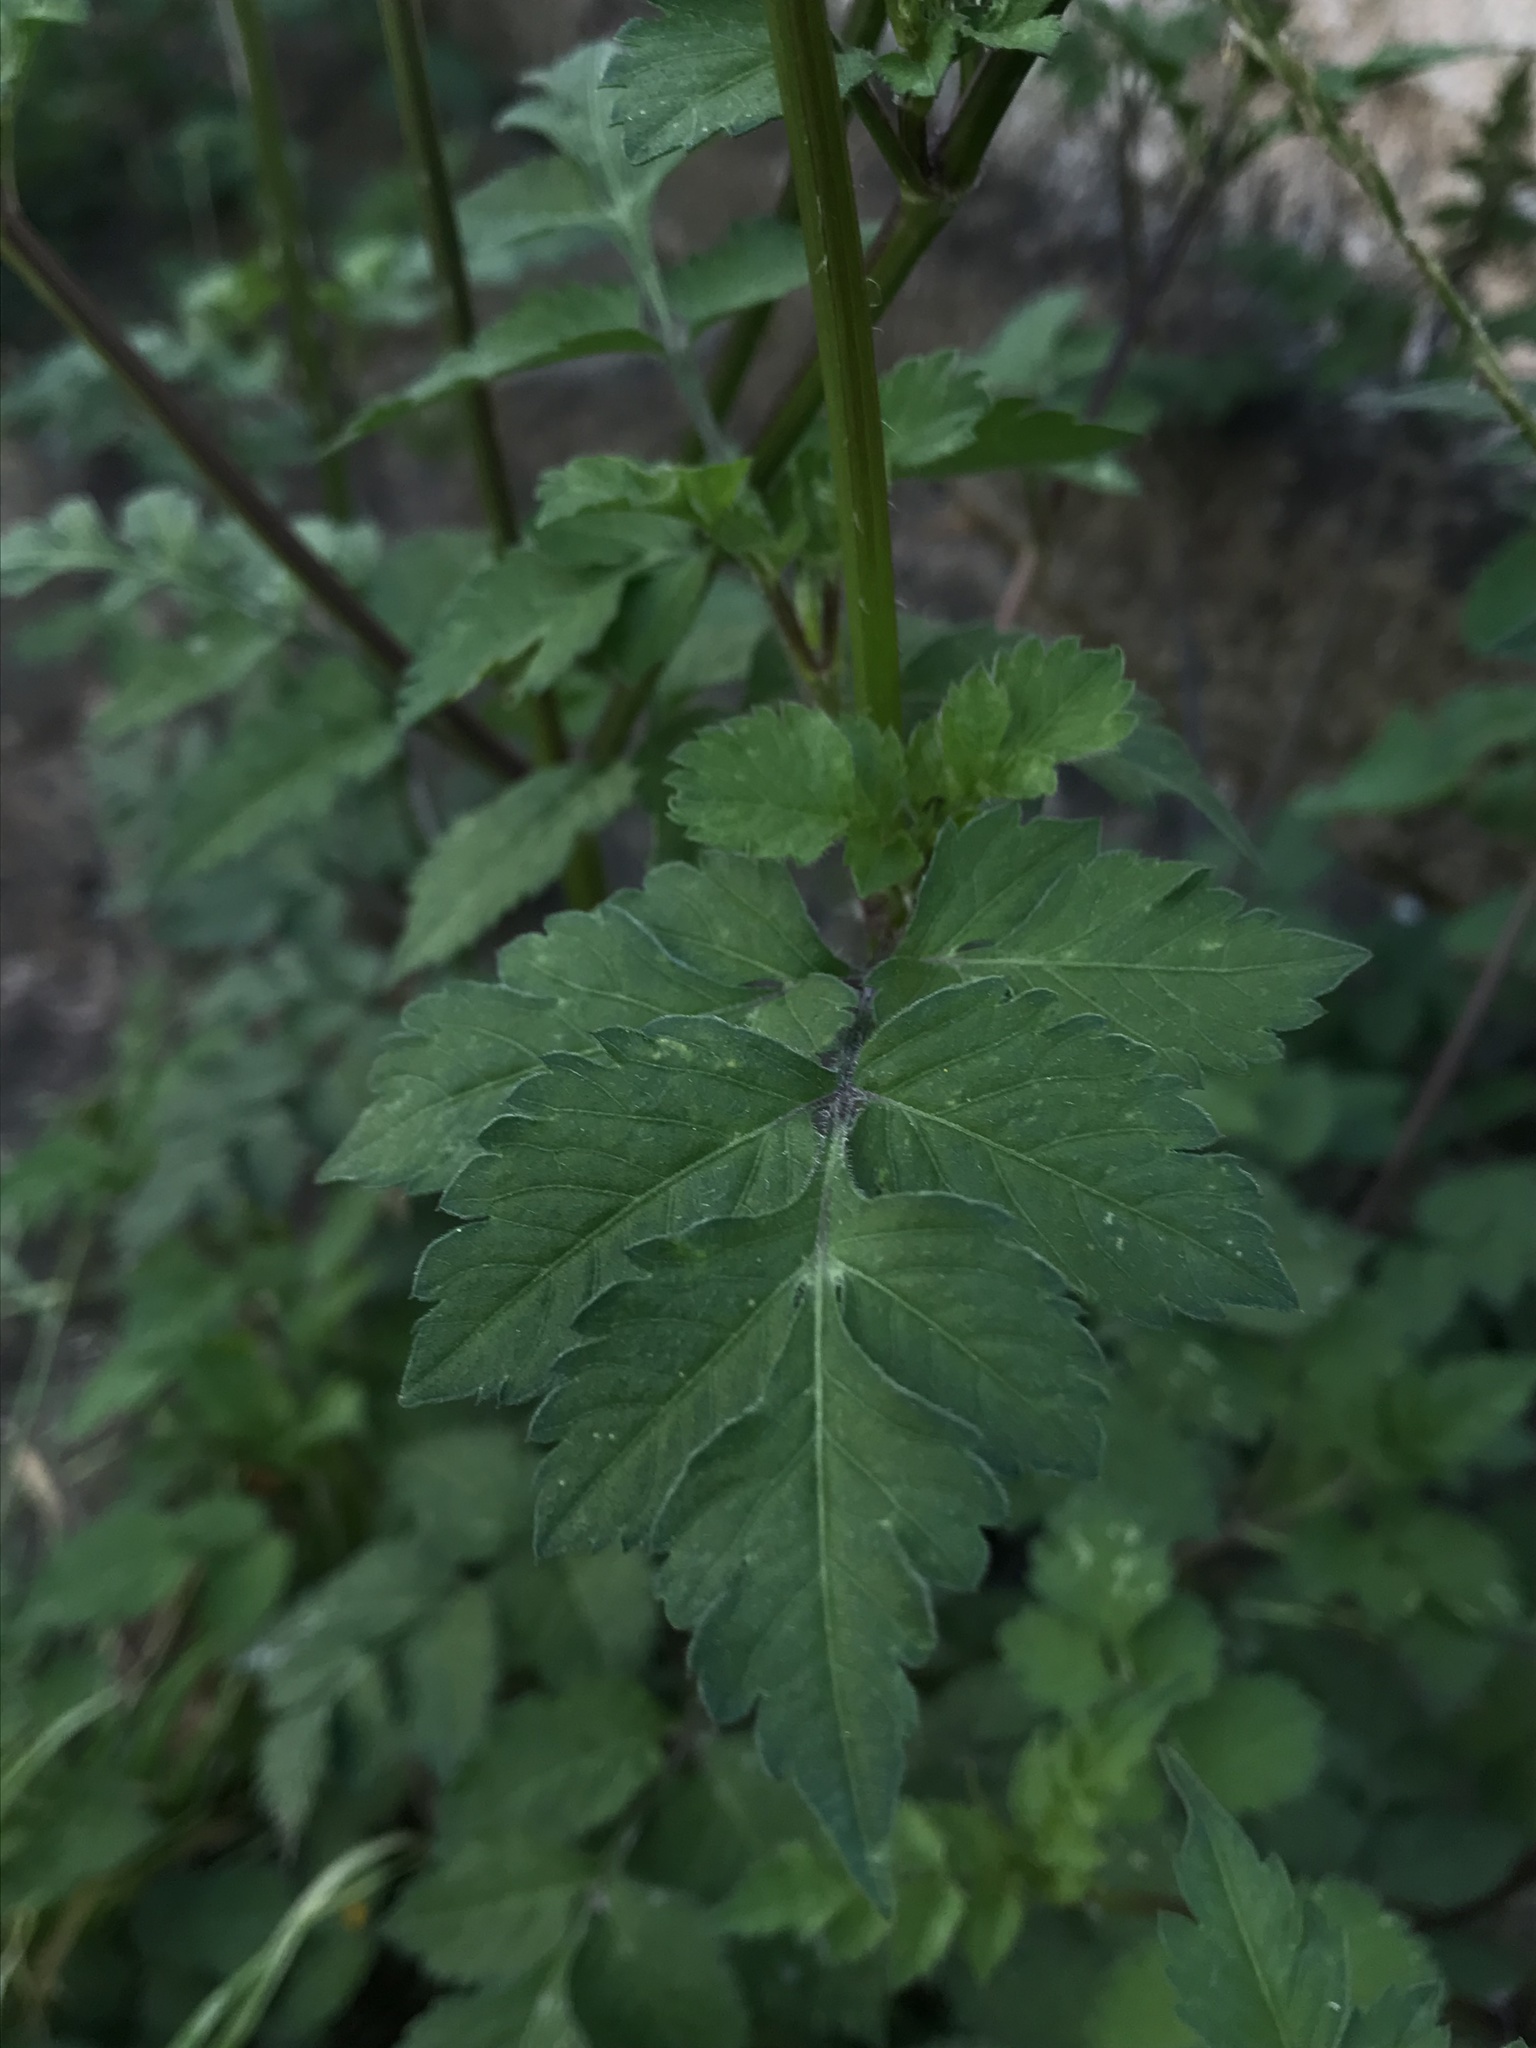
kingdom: Plantae
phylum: Tracheophyta
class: Magnoliopsida
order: Asterales
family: Asteraceae
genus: Bidens
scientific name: Bidens alba
